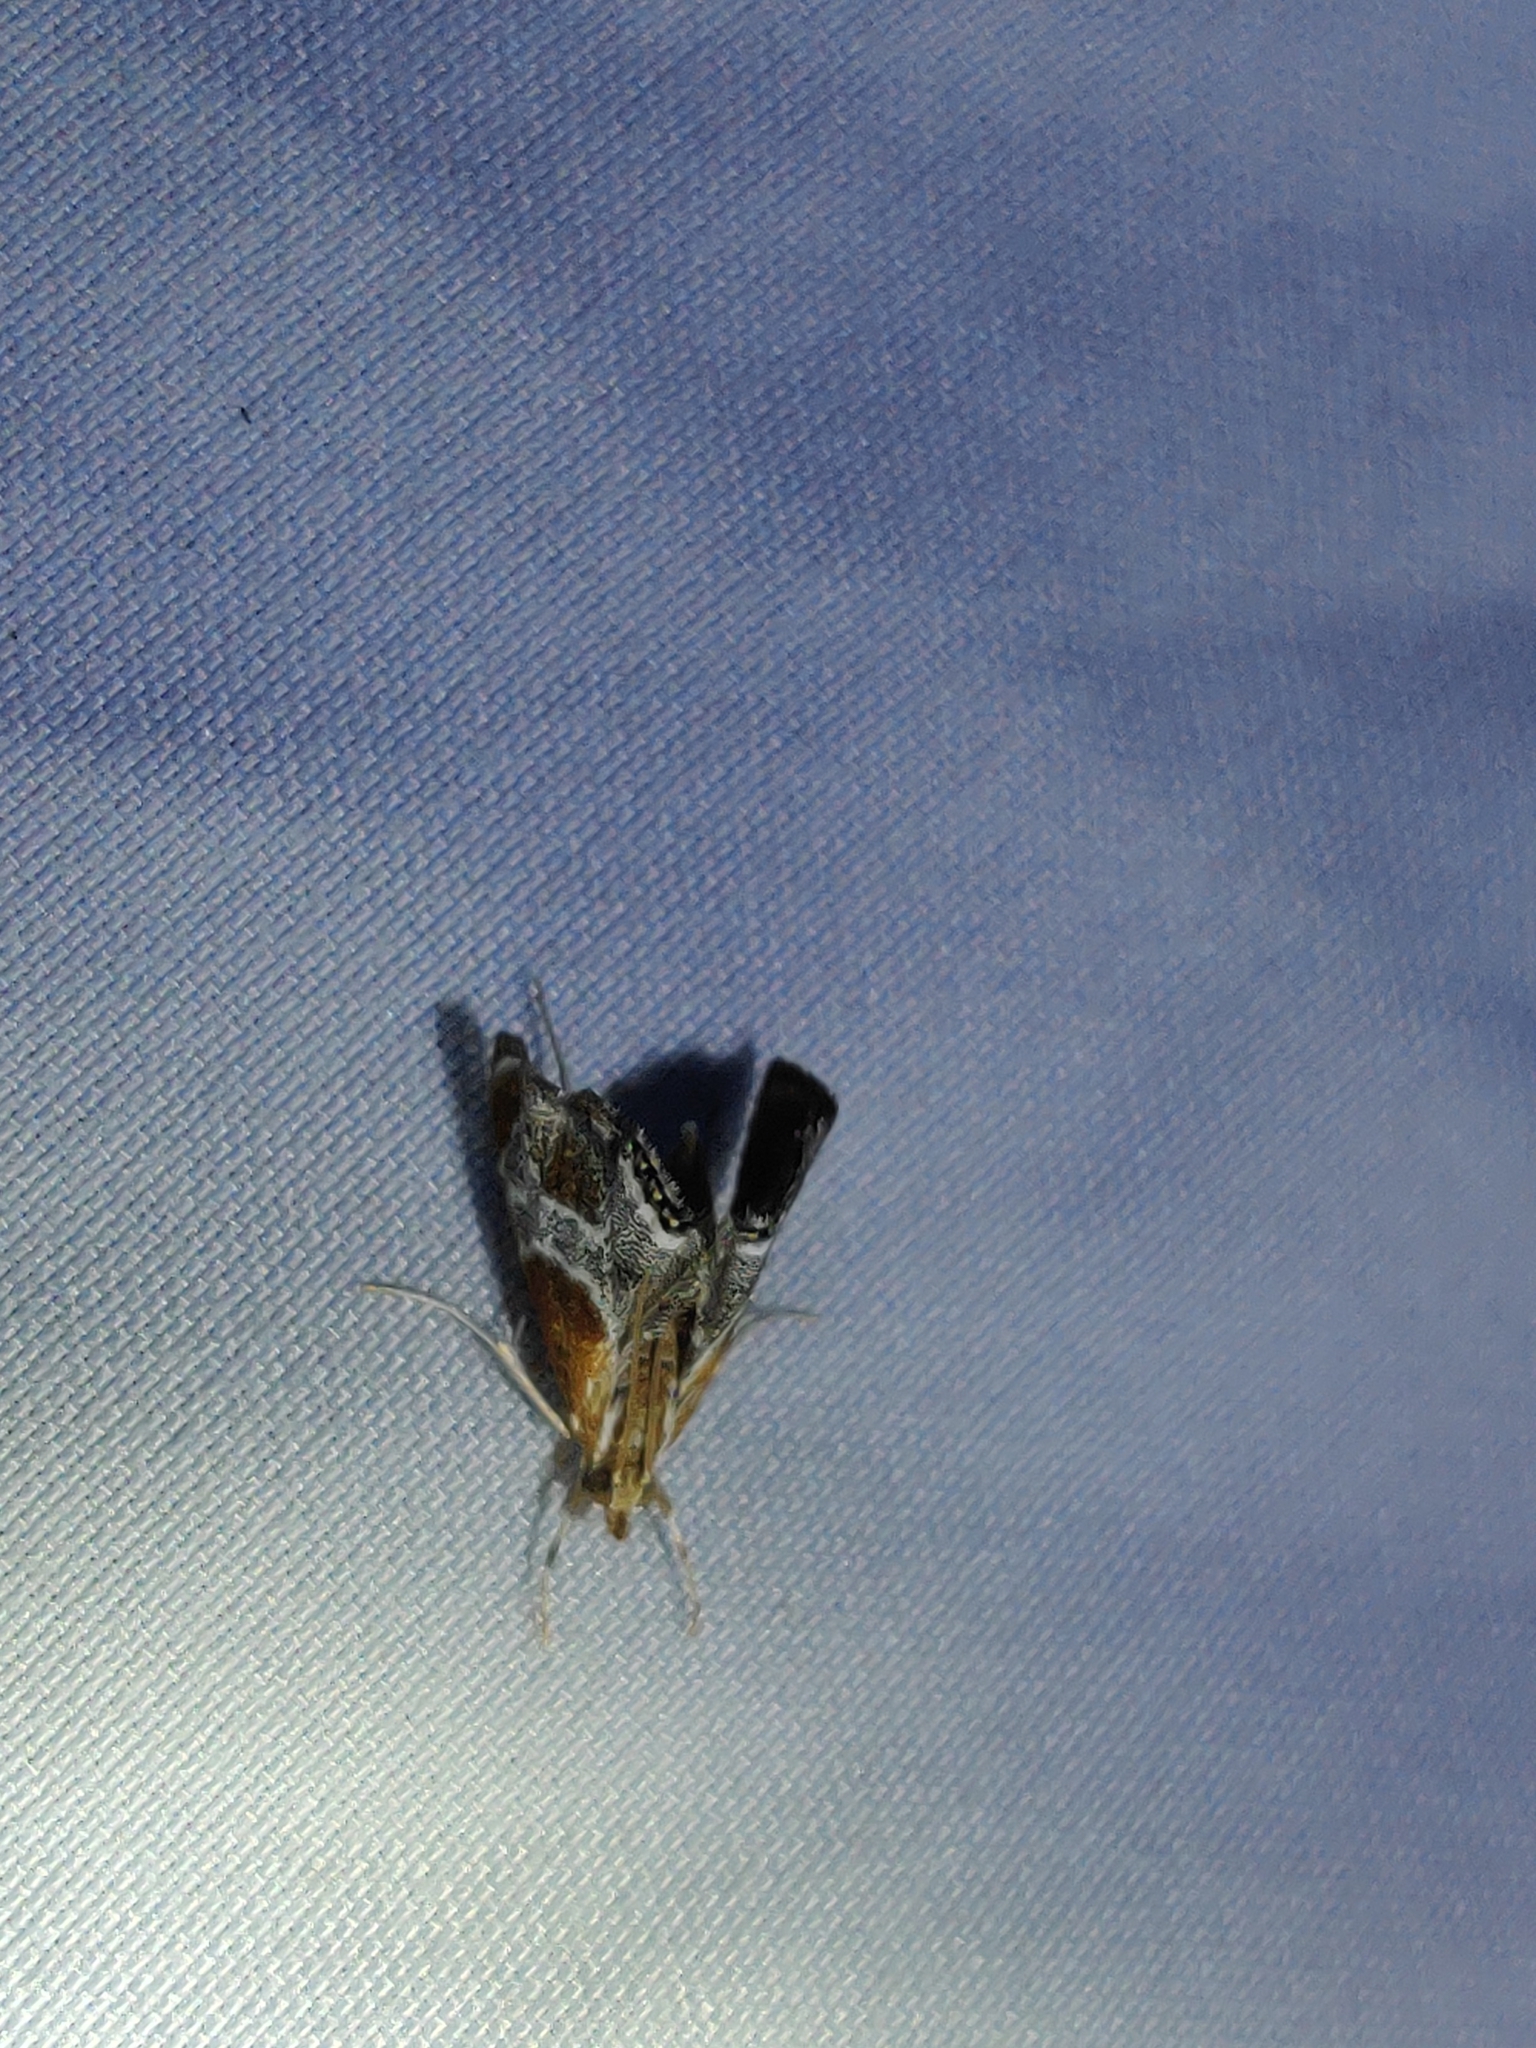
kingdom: Animalia
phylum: Arthropoda
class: Insecta
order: Lepidoptera
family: Crambidae
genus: Chalcoela
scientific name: Chalcoela pegasalis
